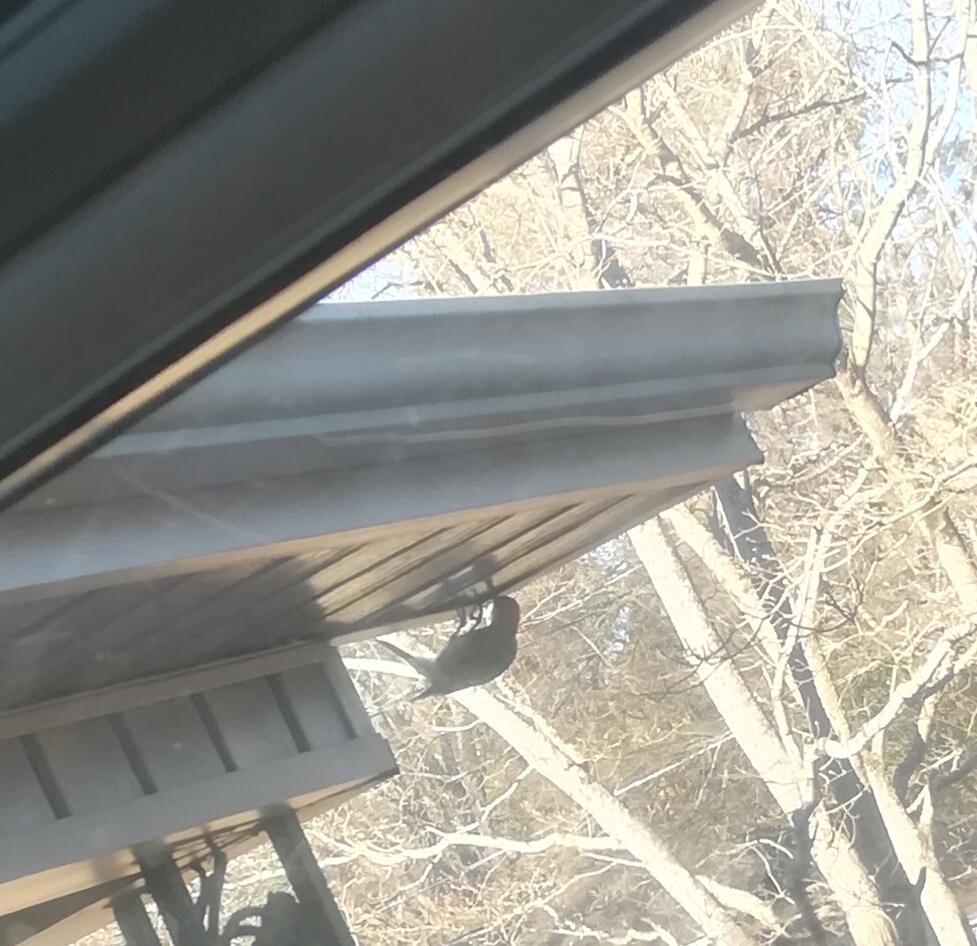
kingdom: Animalia
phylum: Chordata
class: Aves
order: Piciformes
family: Picidae
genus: Melanerpes
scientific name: Melanerpes carolinus
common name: Red-bellied woodpecker
